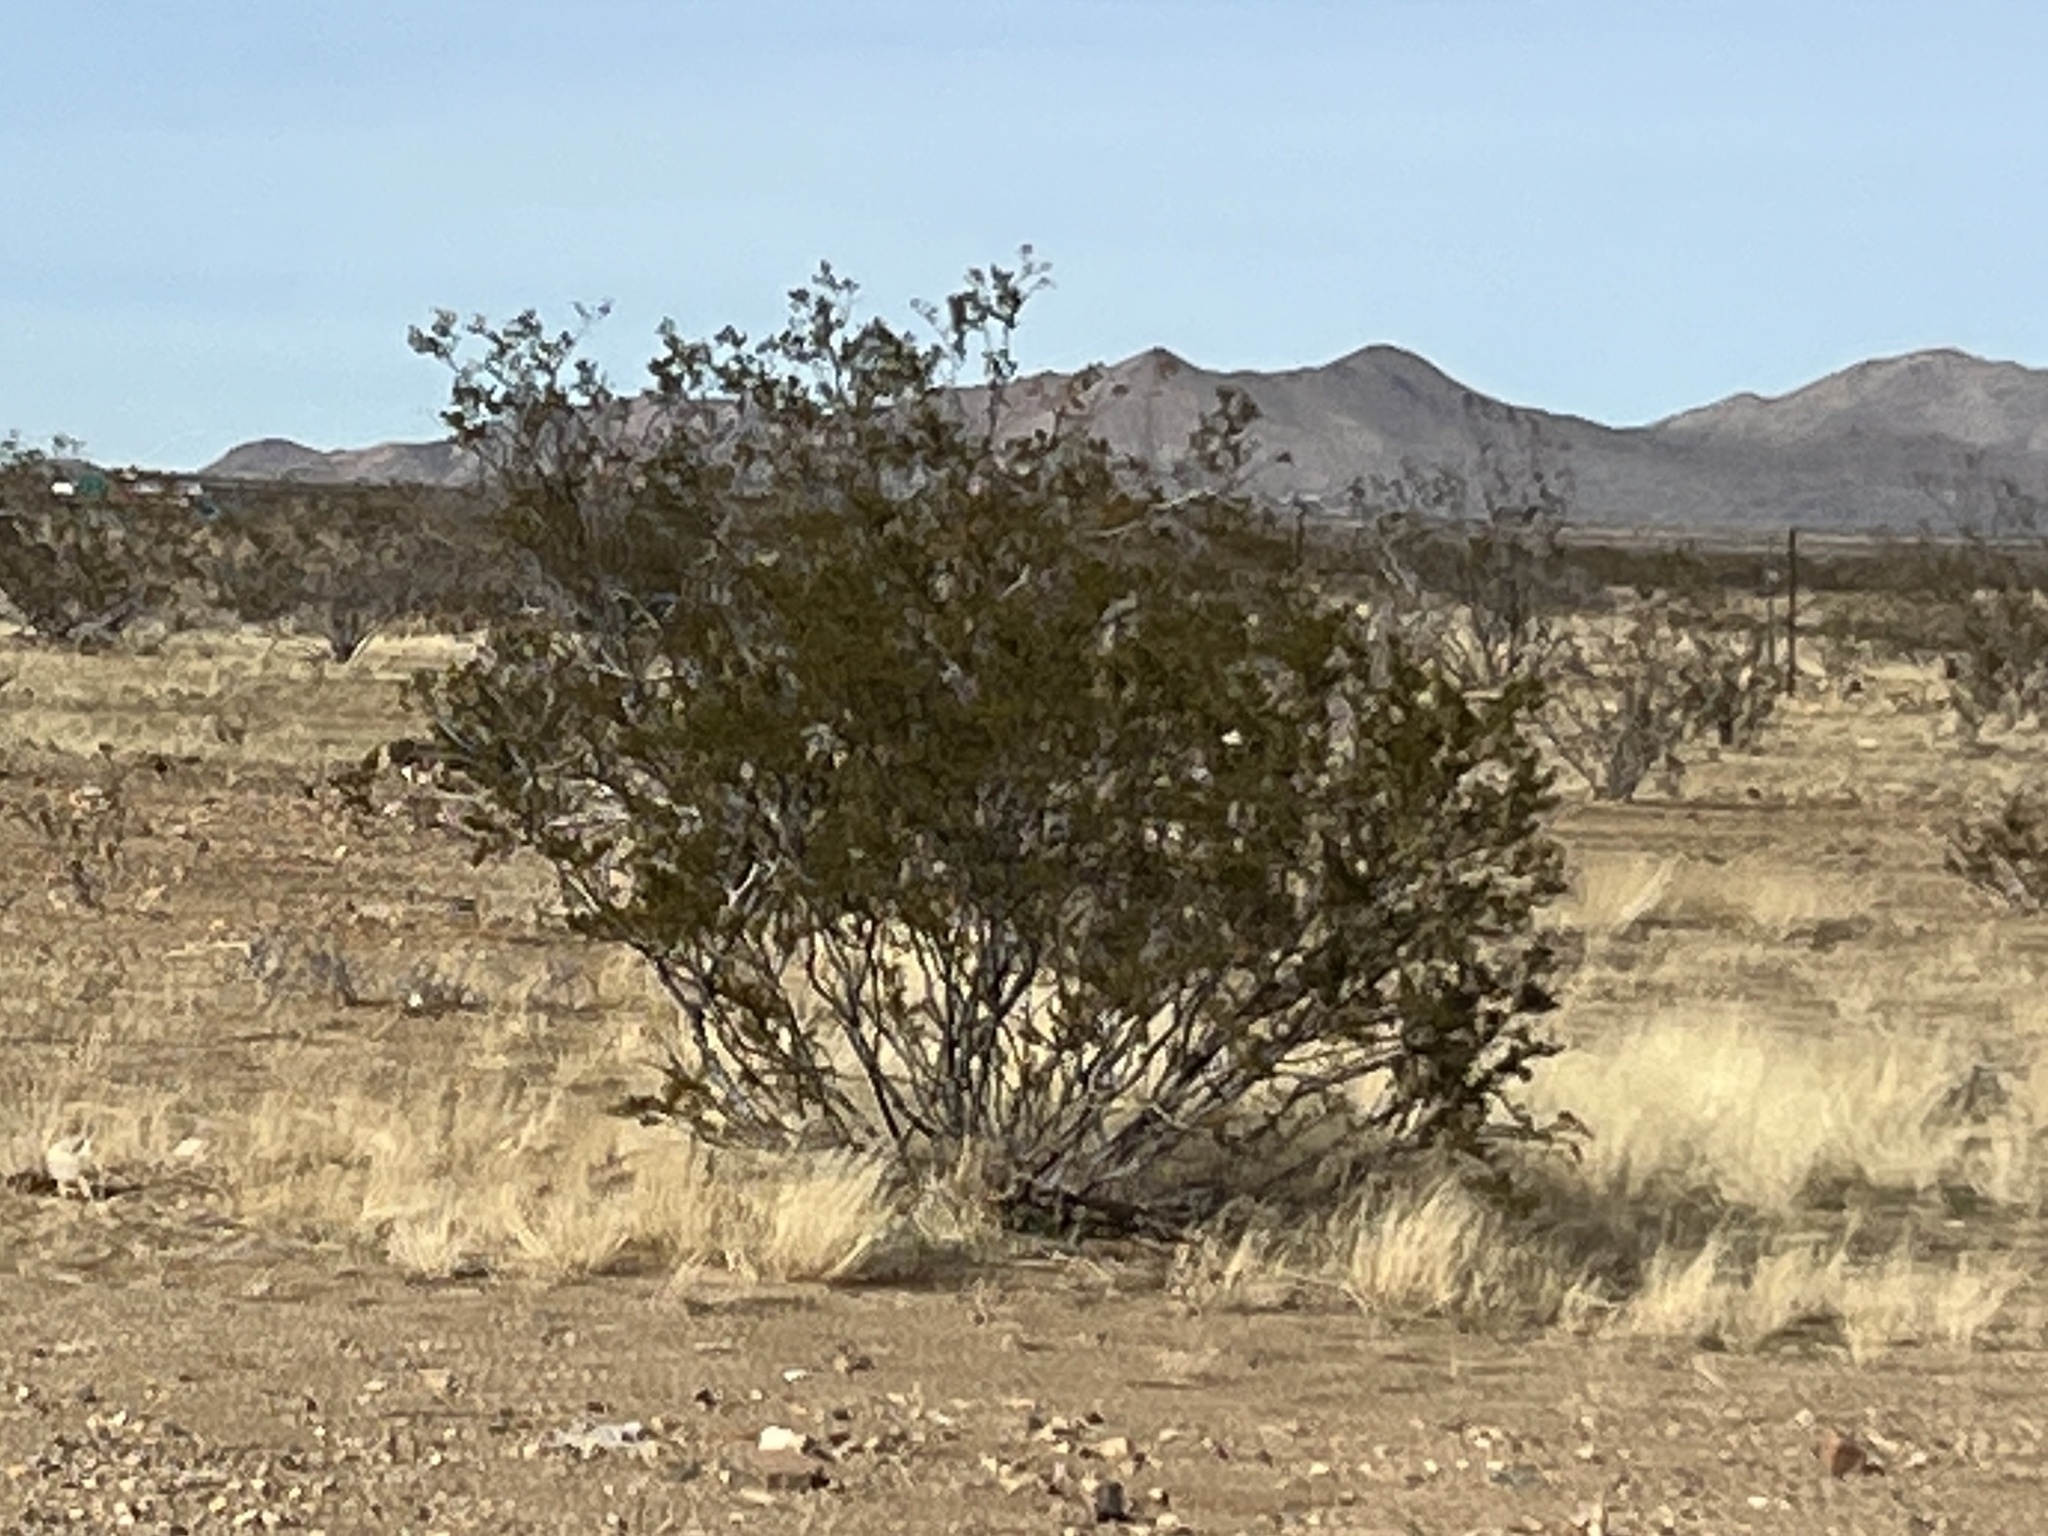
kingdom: Plantae
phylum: Tracheophyta
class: Magnoliopsida
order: Zygophyllales
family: Zygophyllaceae
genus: Larrea
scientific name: Larrea tridentata
